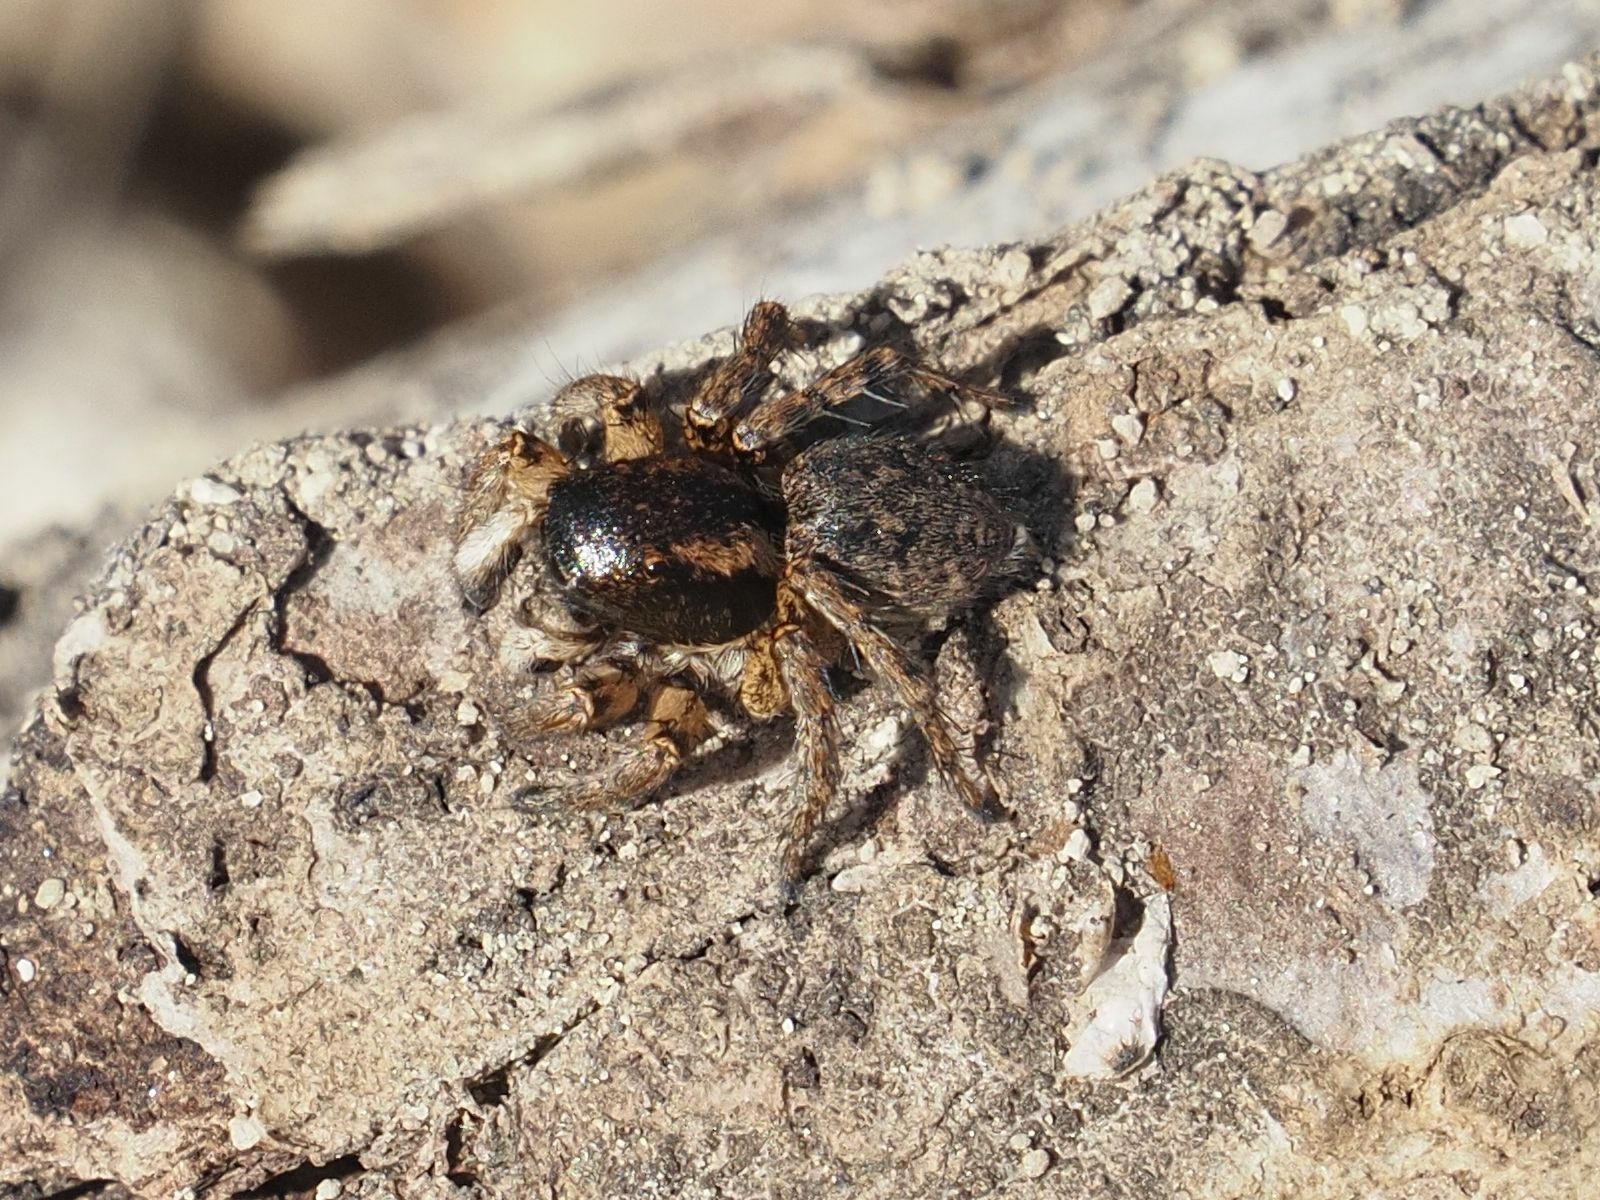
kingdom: Animalia
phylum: Arthropoda
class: Arachnida
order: Araneae
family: Salticidae
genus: Asianellus
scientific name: Asianellus festivus
